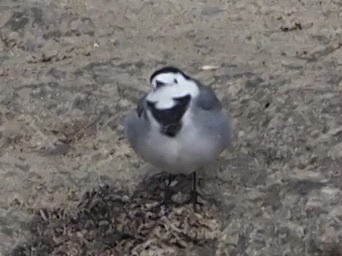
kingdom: Animalia
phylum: Chordata
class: Aves
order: Passeriformes
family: Motacillidae
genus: Motacilla
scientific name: Motacilla alba
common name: White wagtail
